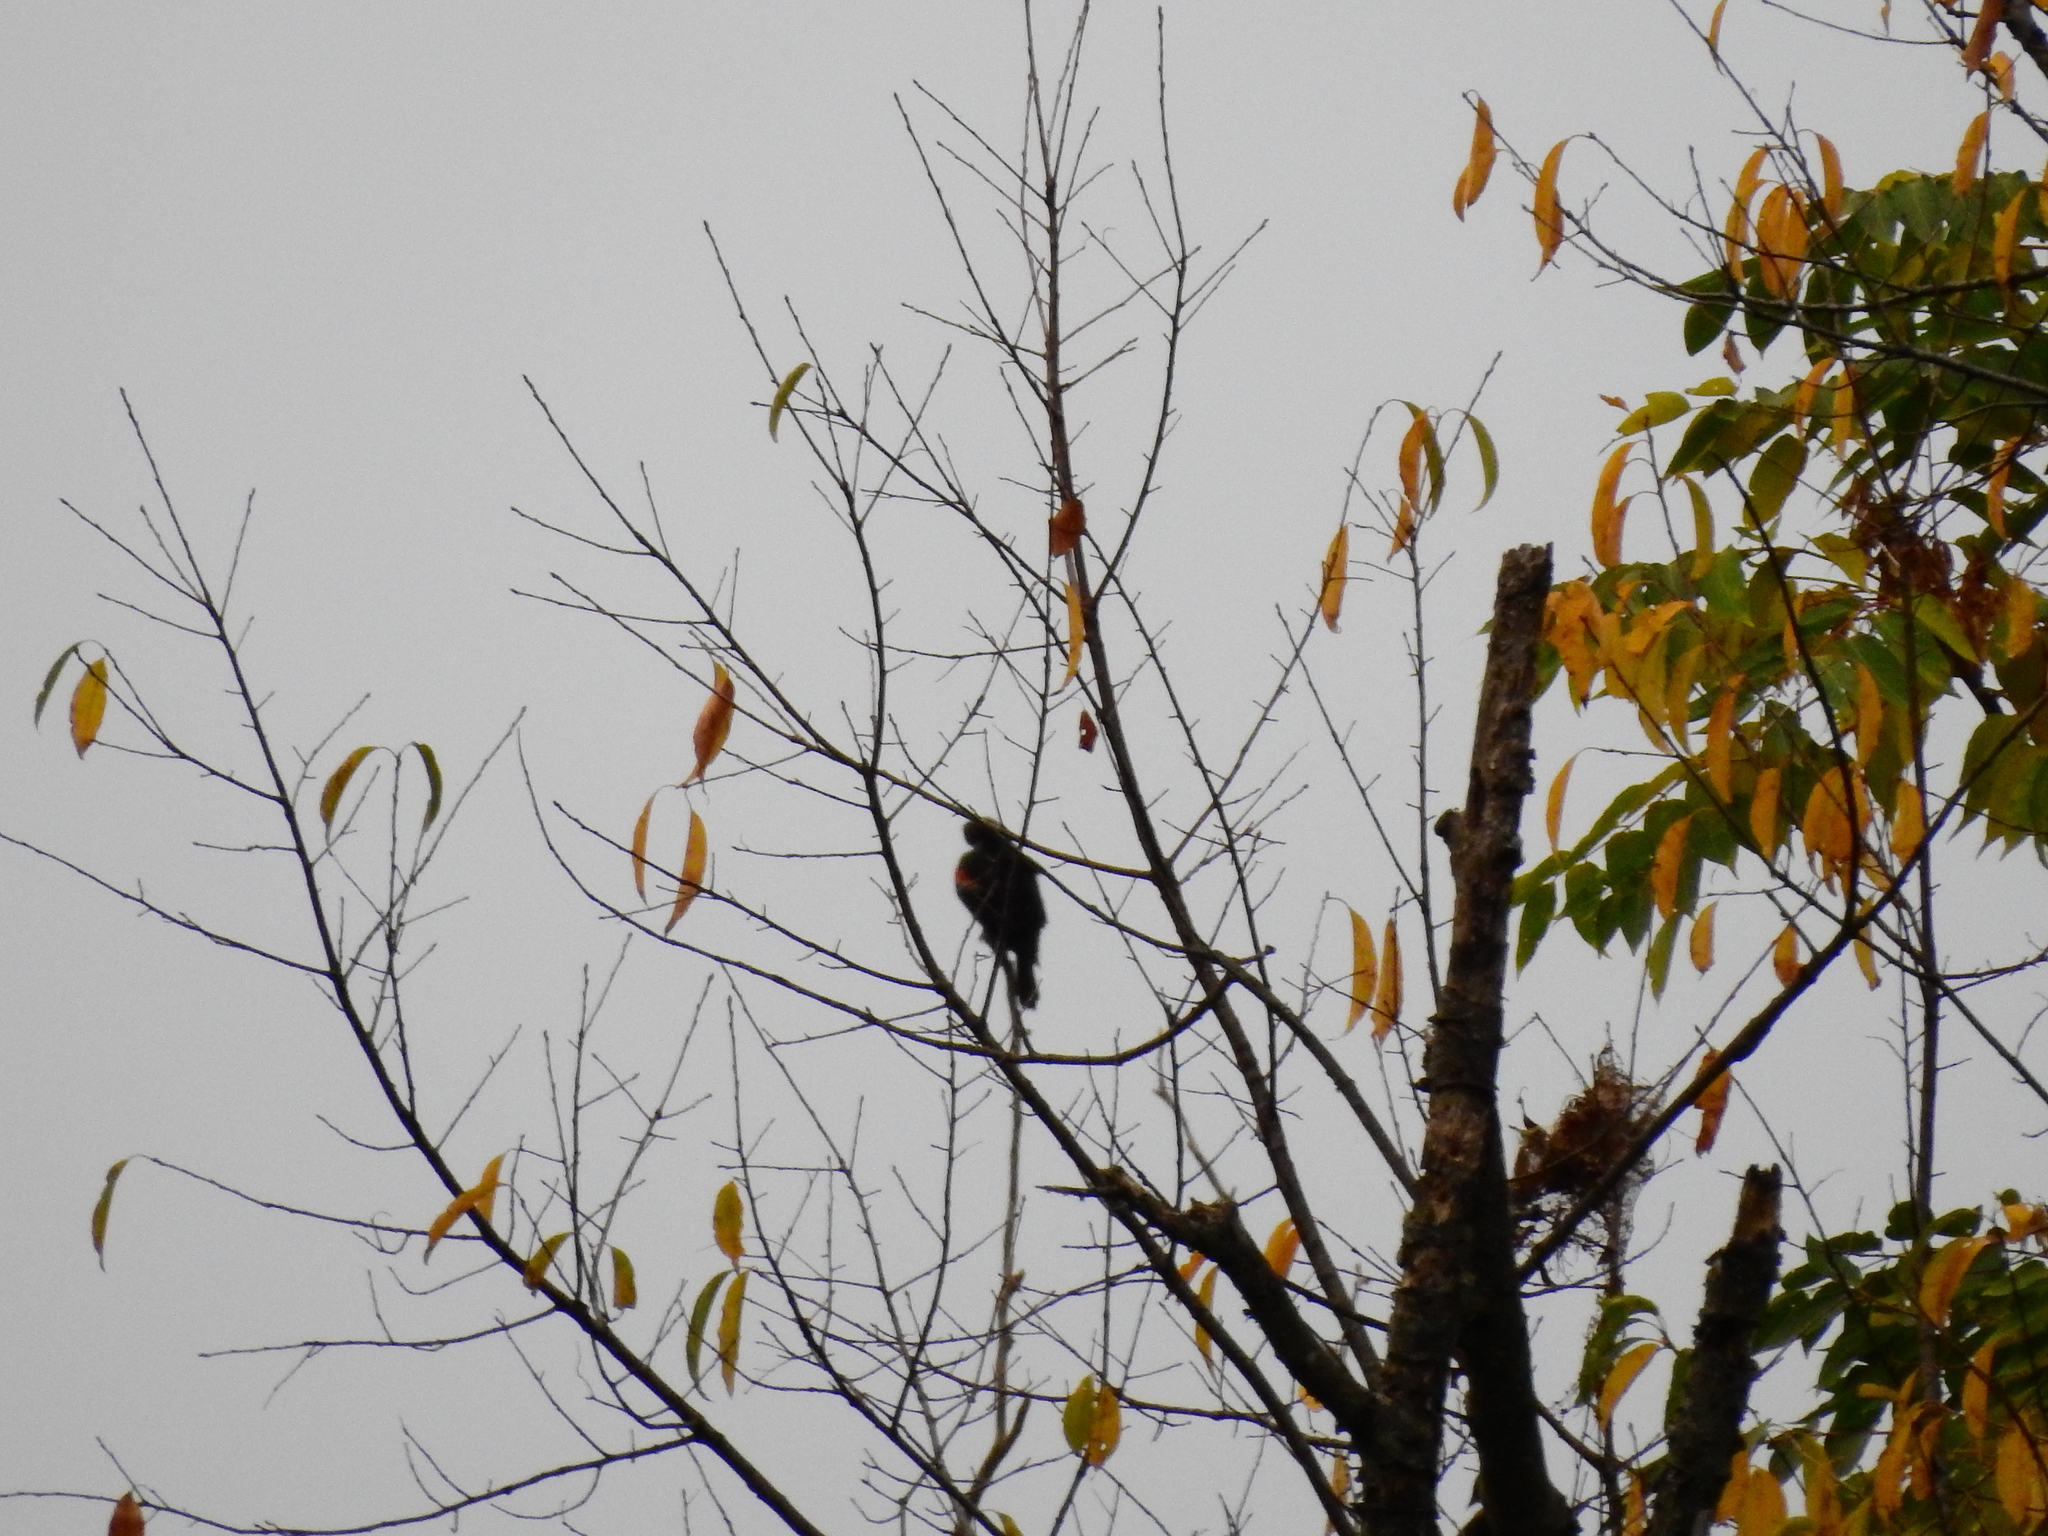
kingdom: Animalia
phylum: Chordata
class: Aves
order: Passeriformes
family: Icteridae
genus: Agelaius
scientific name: Agelaius phoeniceus
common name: Red-winged blackbird
